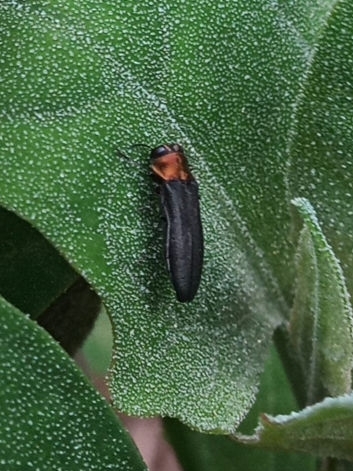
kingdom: Animalia
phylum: Arthropoda
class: Insecta
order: Coleoptera
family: Buprestidae
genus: Agrilus
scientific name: Agrilus ruficollis
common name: Red-necked cane borer beetle
